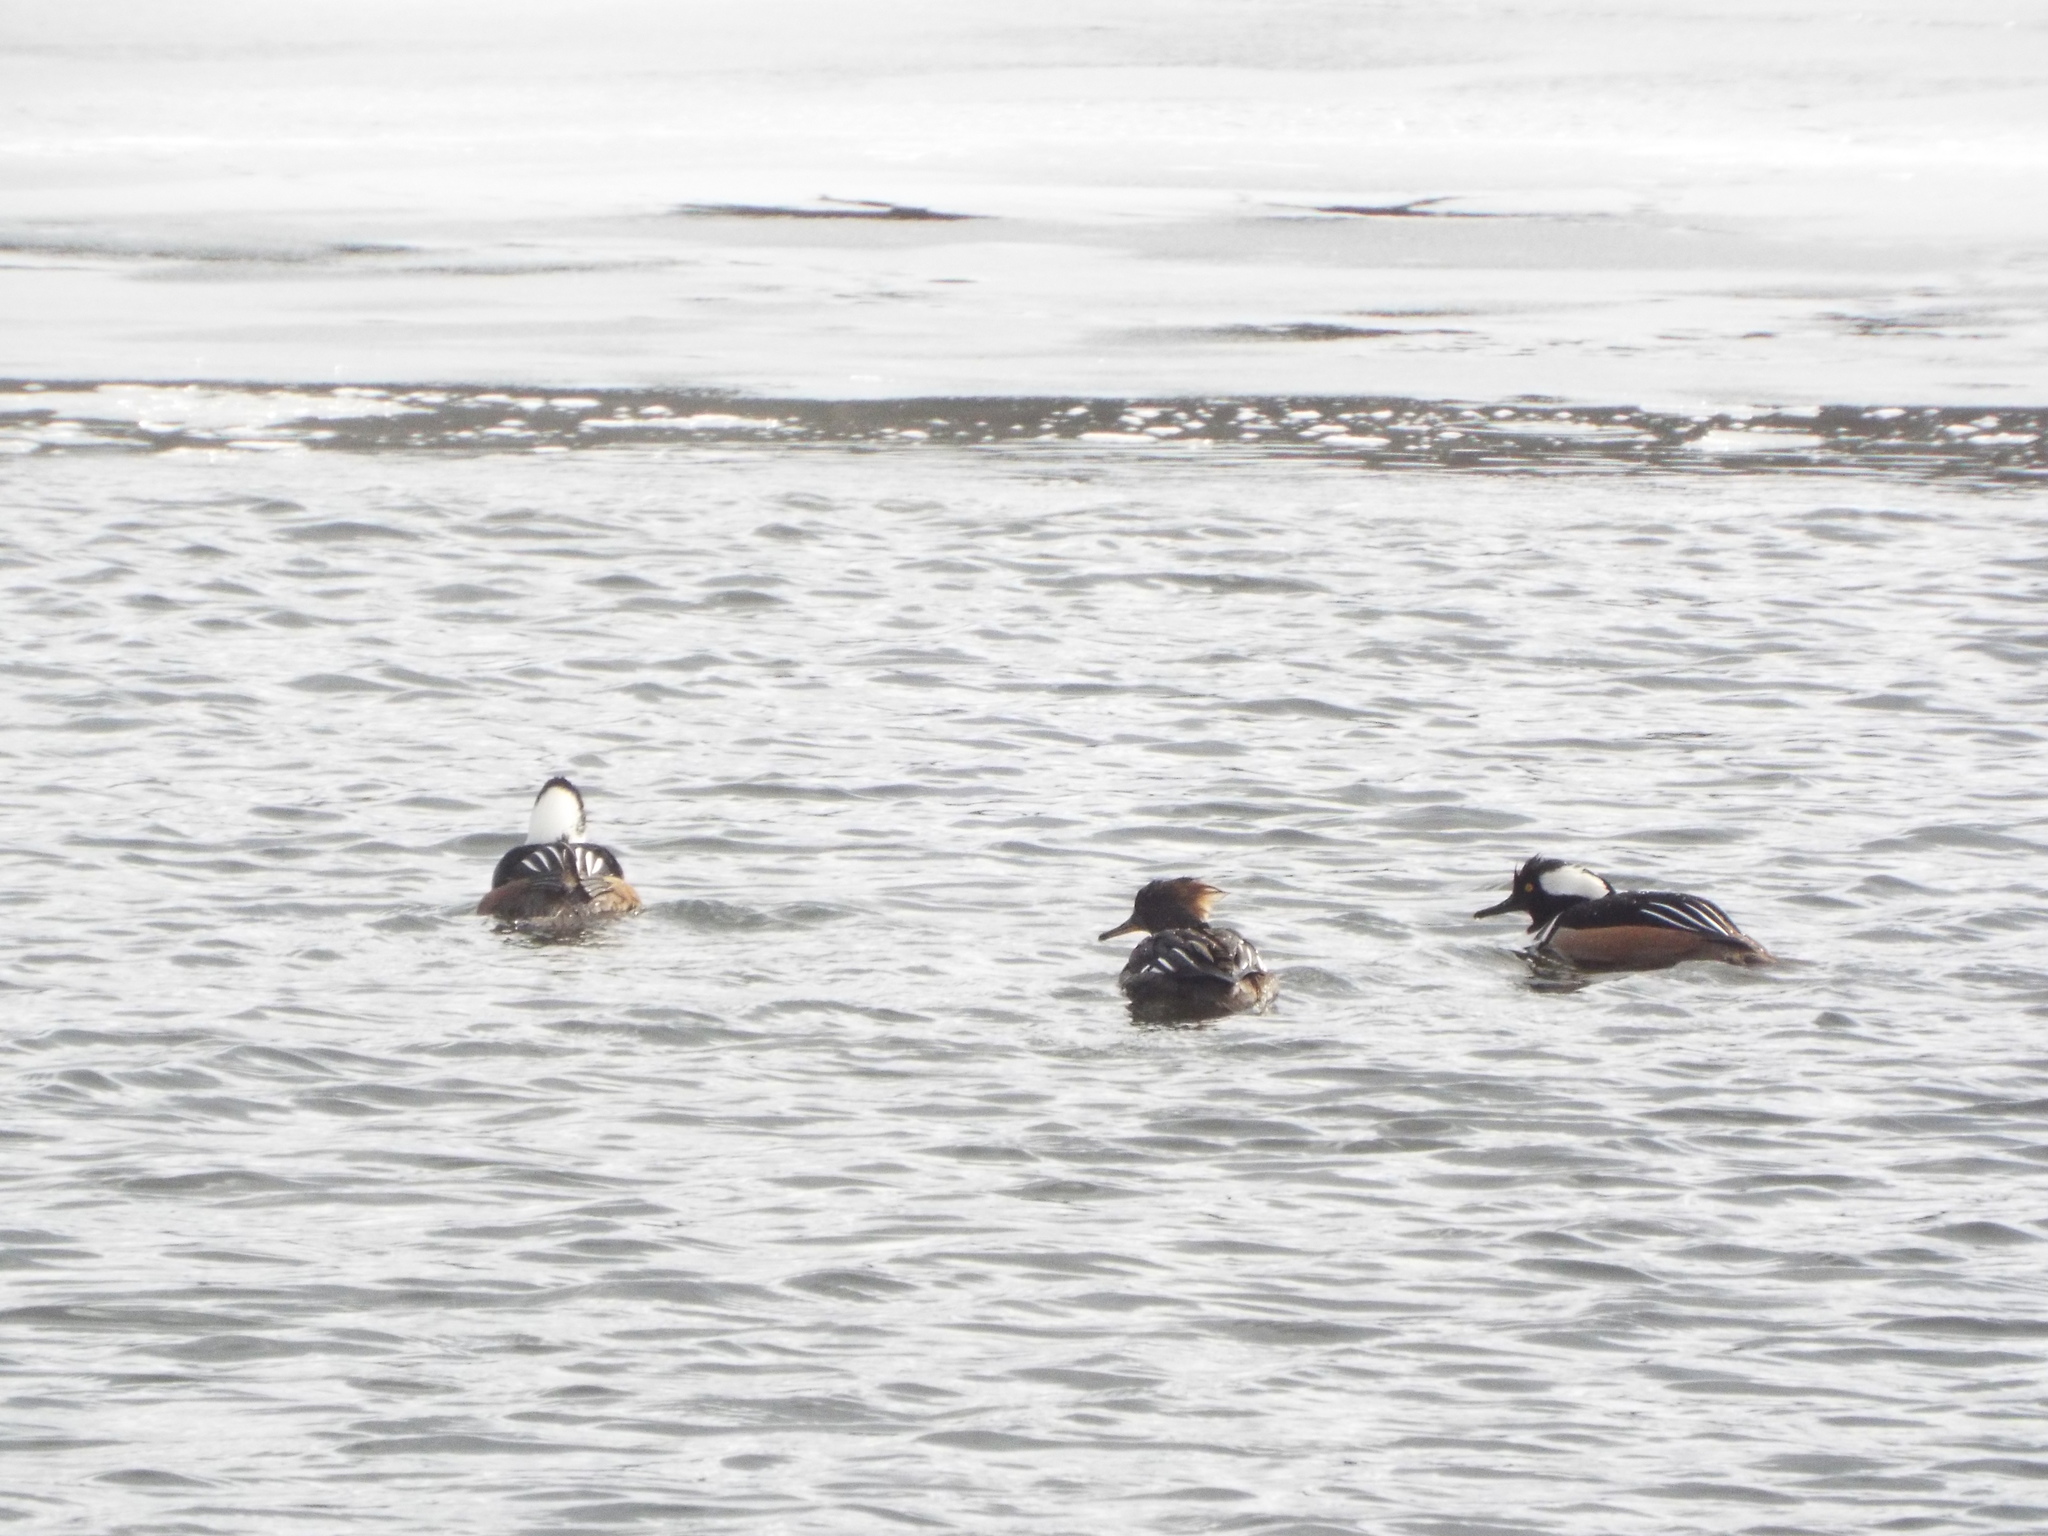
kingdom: Animalia
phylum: Chordata
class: Aves
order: Anseriformes
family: Anatidae
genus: Lophodytes
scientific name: Lophodytes cucullatus
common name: Hooded merganser
